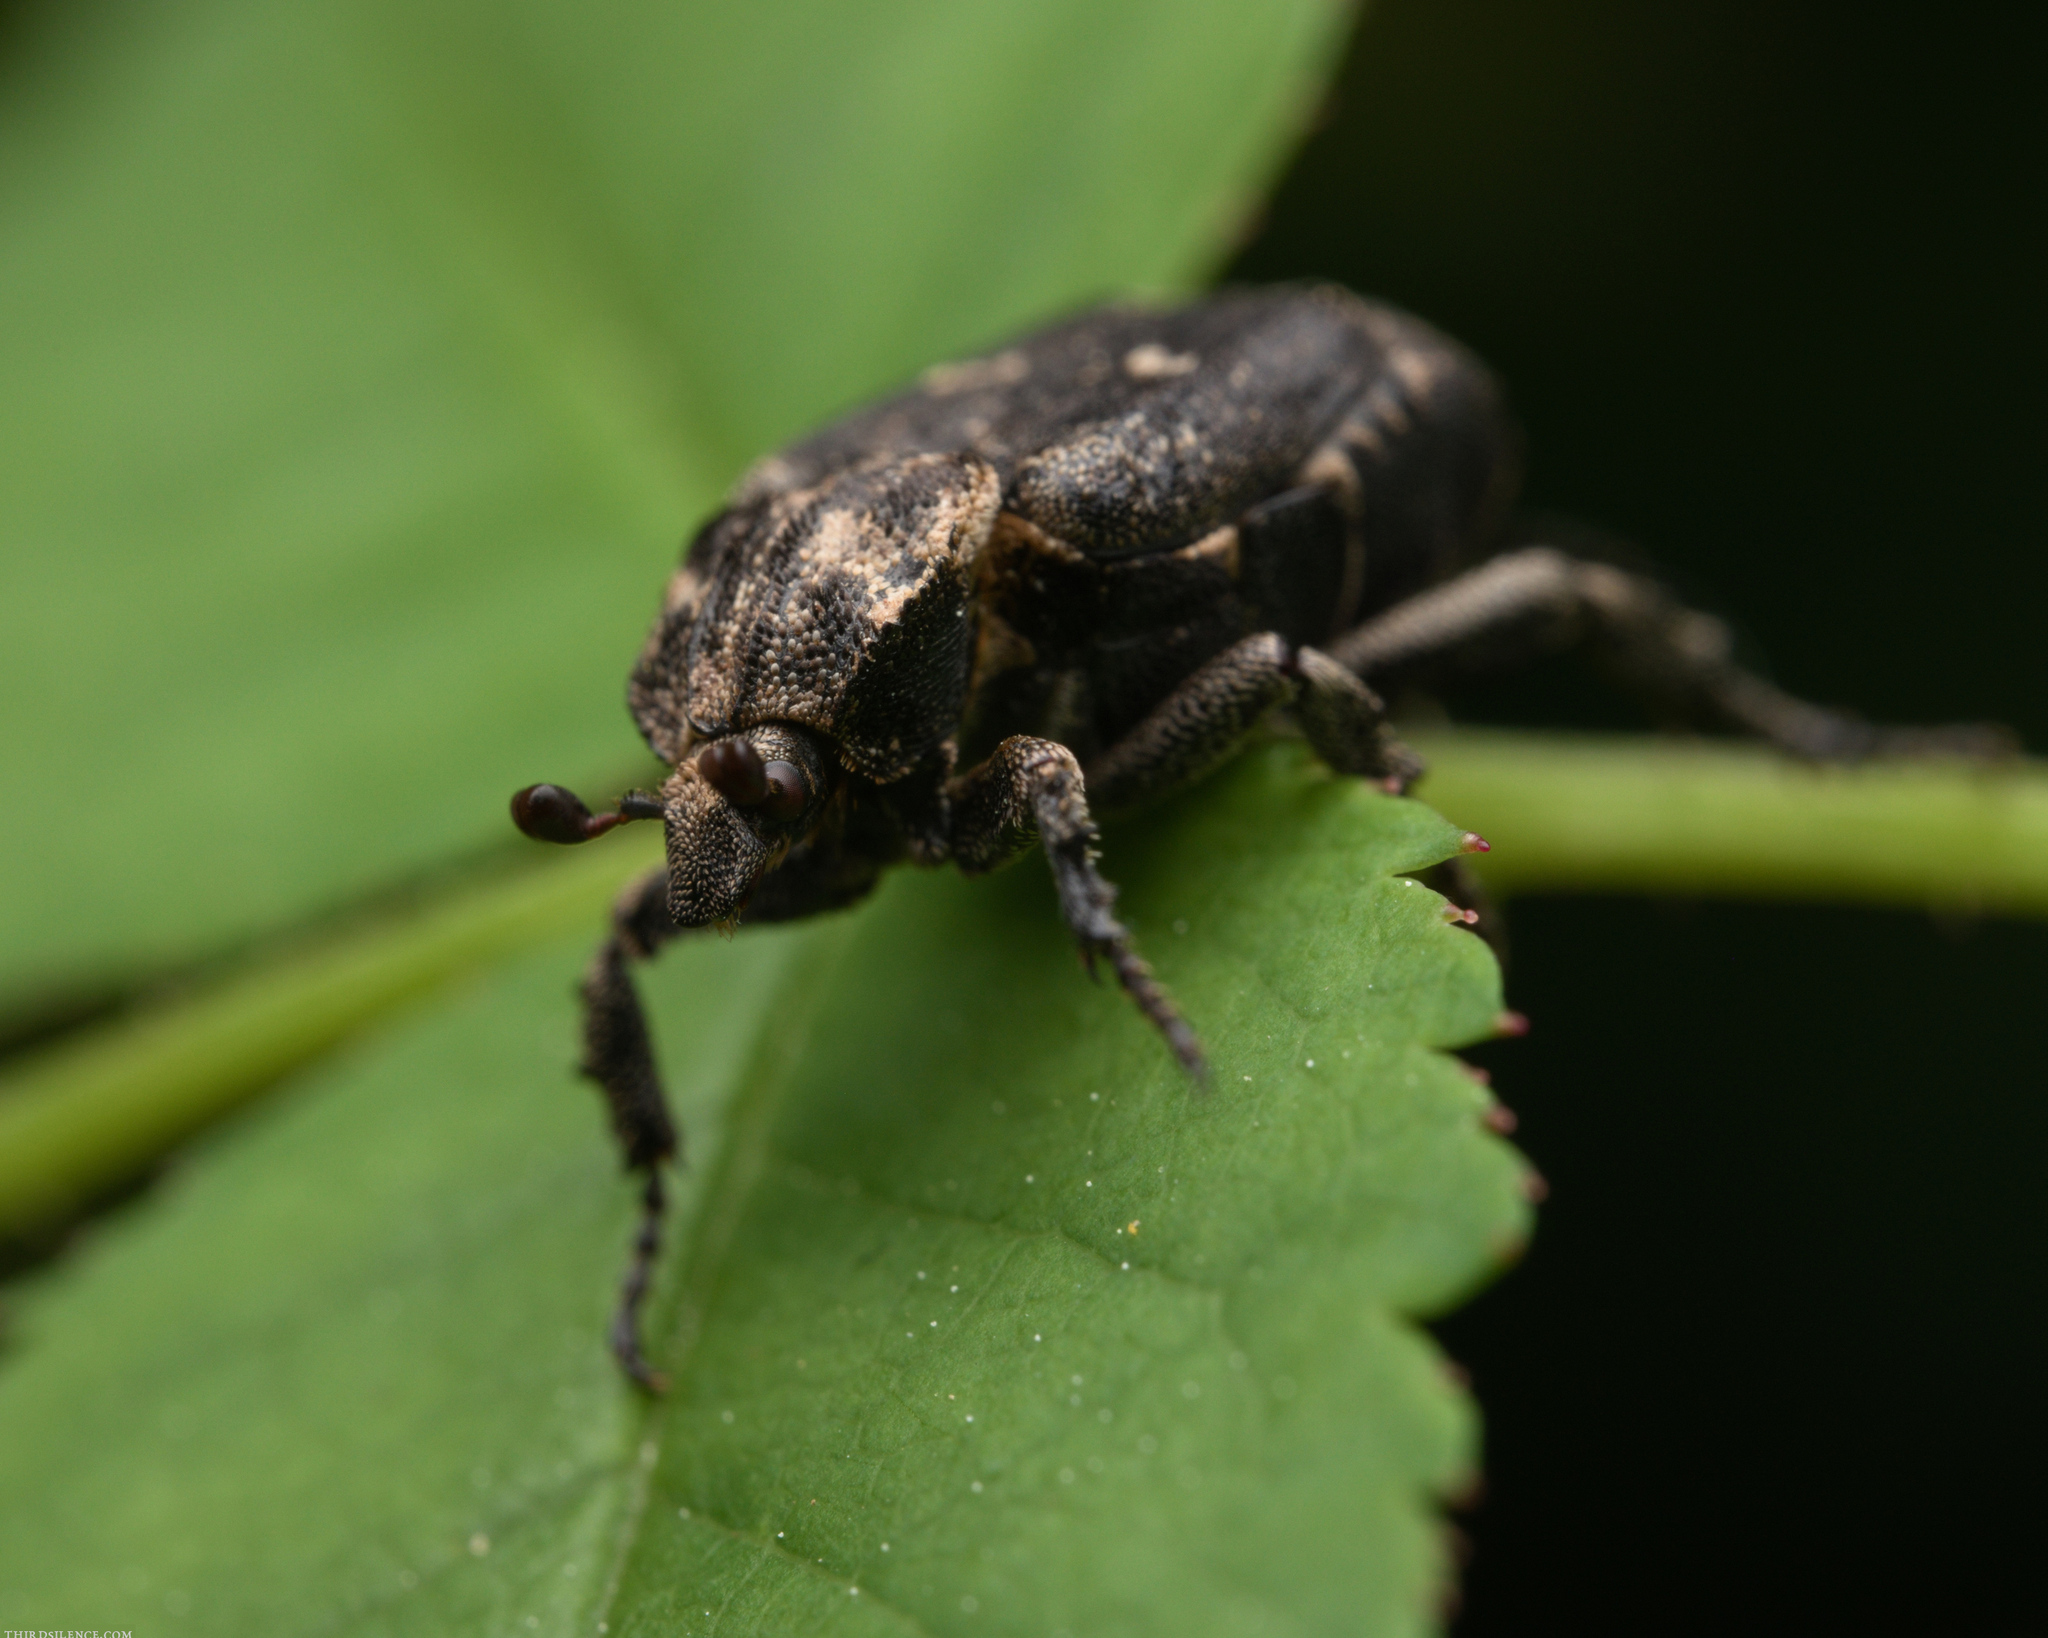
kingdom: Animalia
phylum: Arthropoda
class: Insecta
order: Coleoptera
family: Scarabaeidae
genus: Valgus
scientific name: Valgus hemipterus
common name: Bug flower chafer
